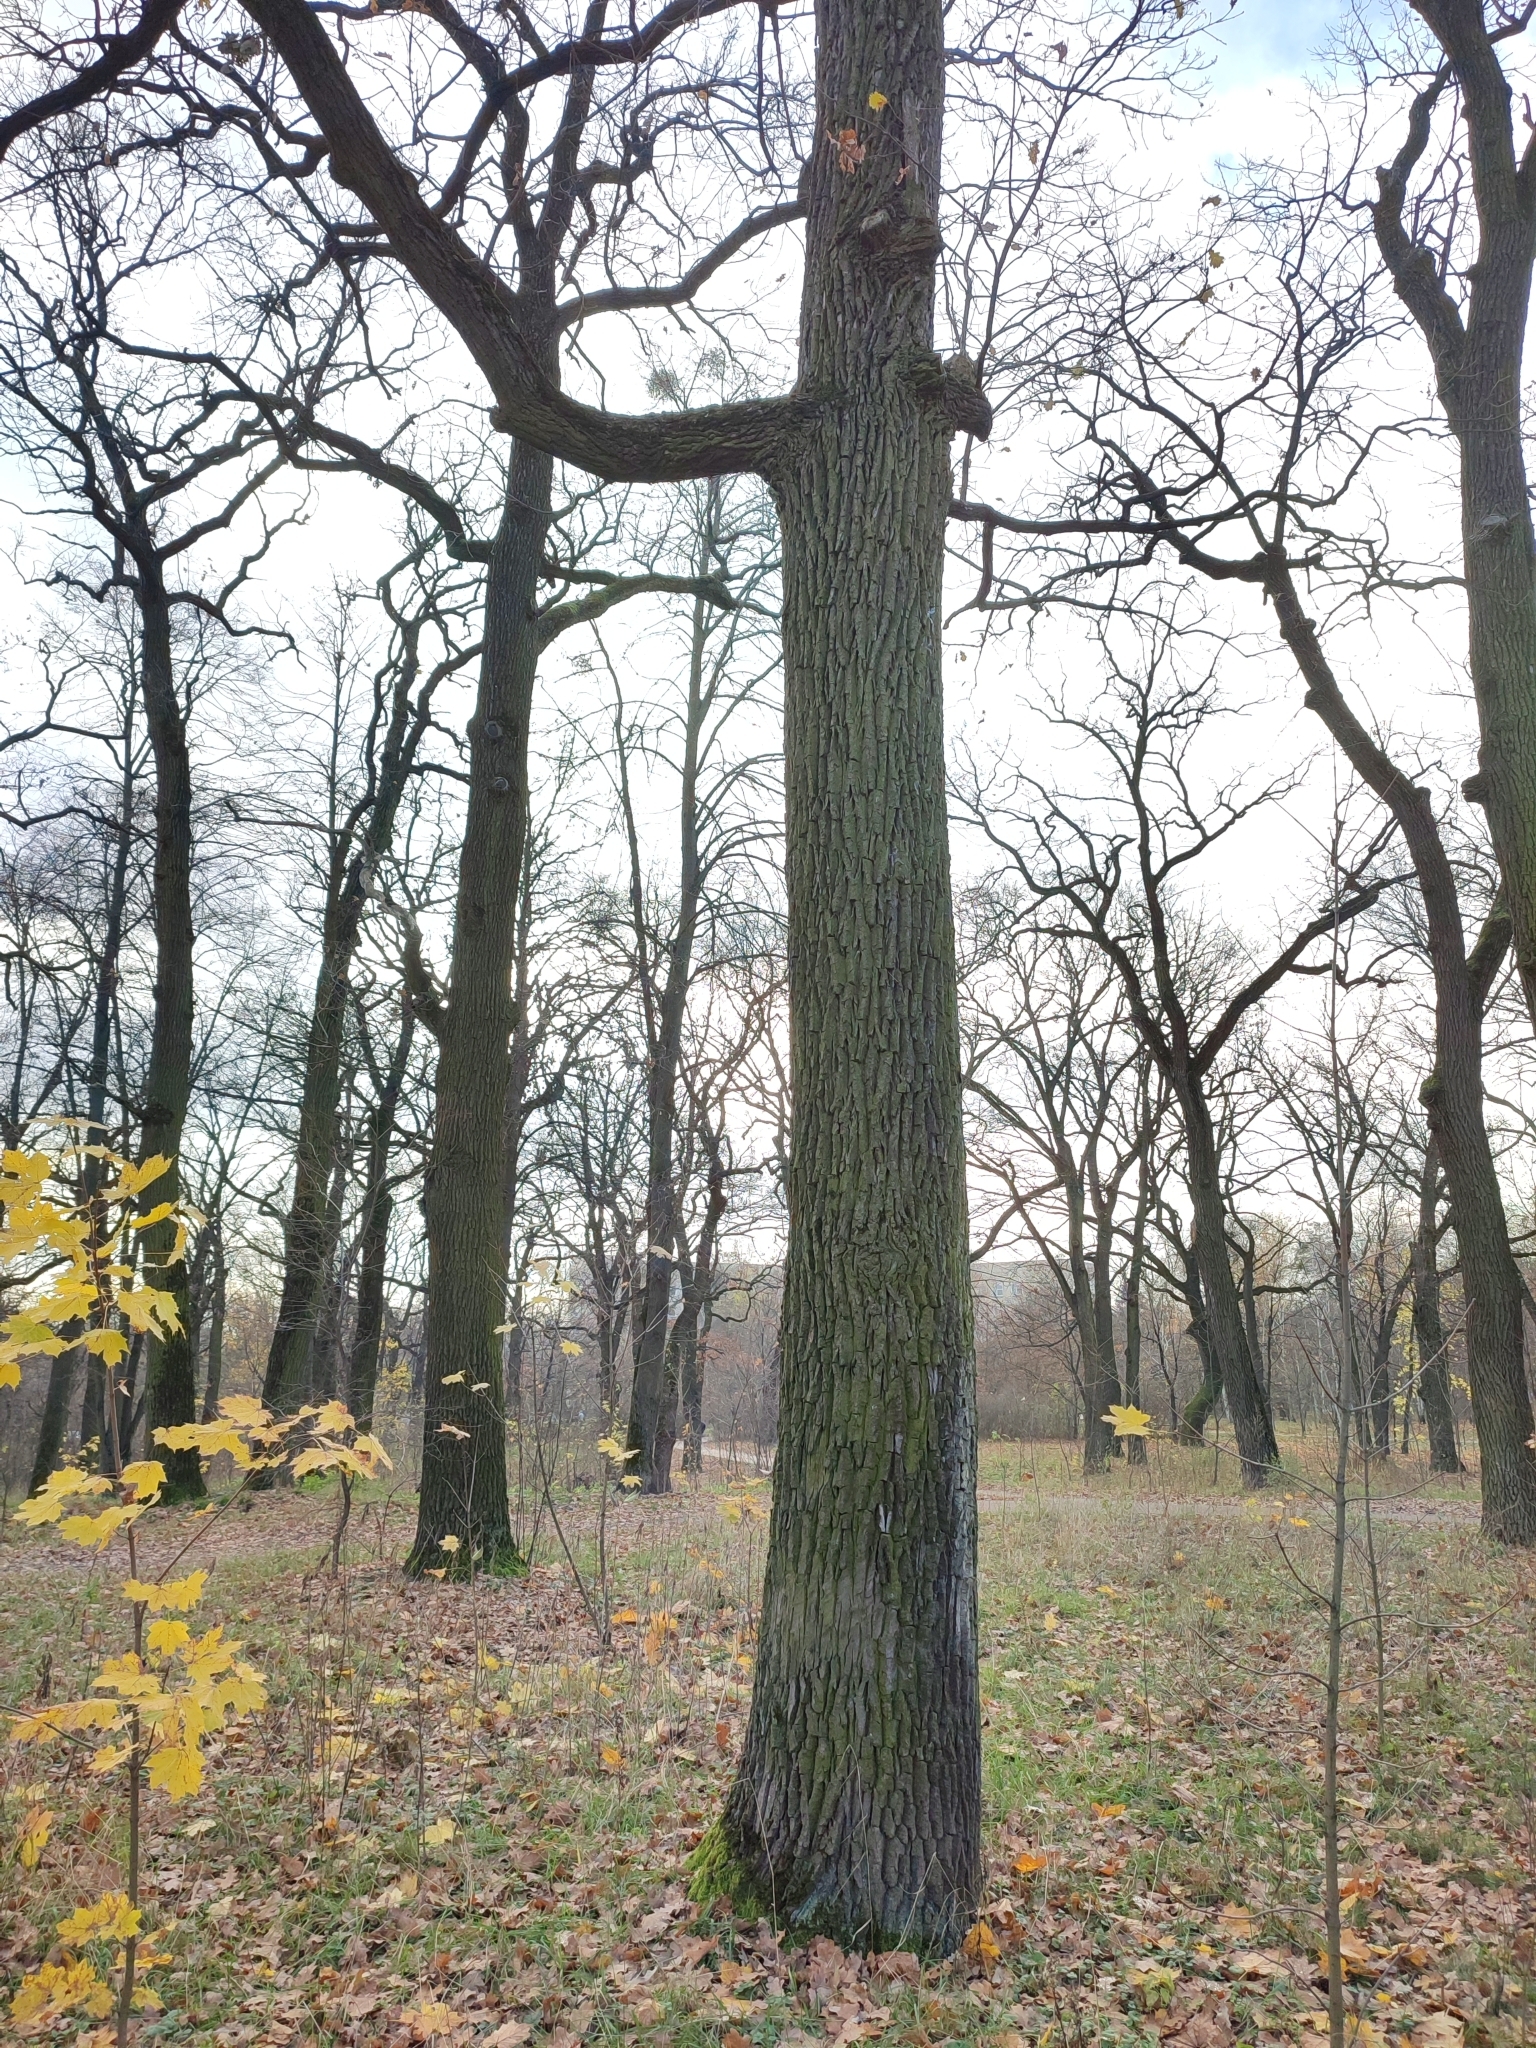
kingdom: Plantae
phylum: Tracheophyta
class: Magnoliopsida
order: Fagales
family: Fagaceae
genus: Quercus
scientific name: Quercus robur
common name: Pedunculate oak
